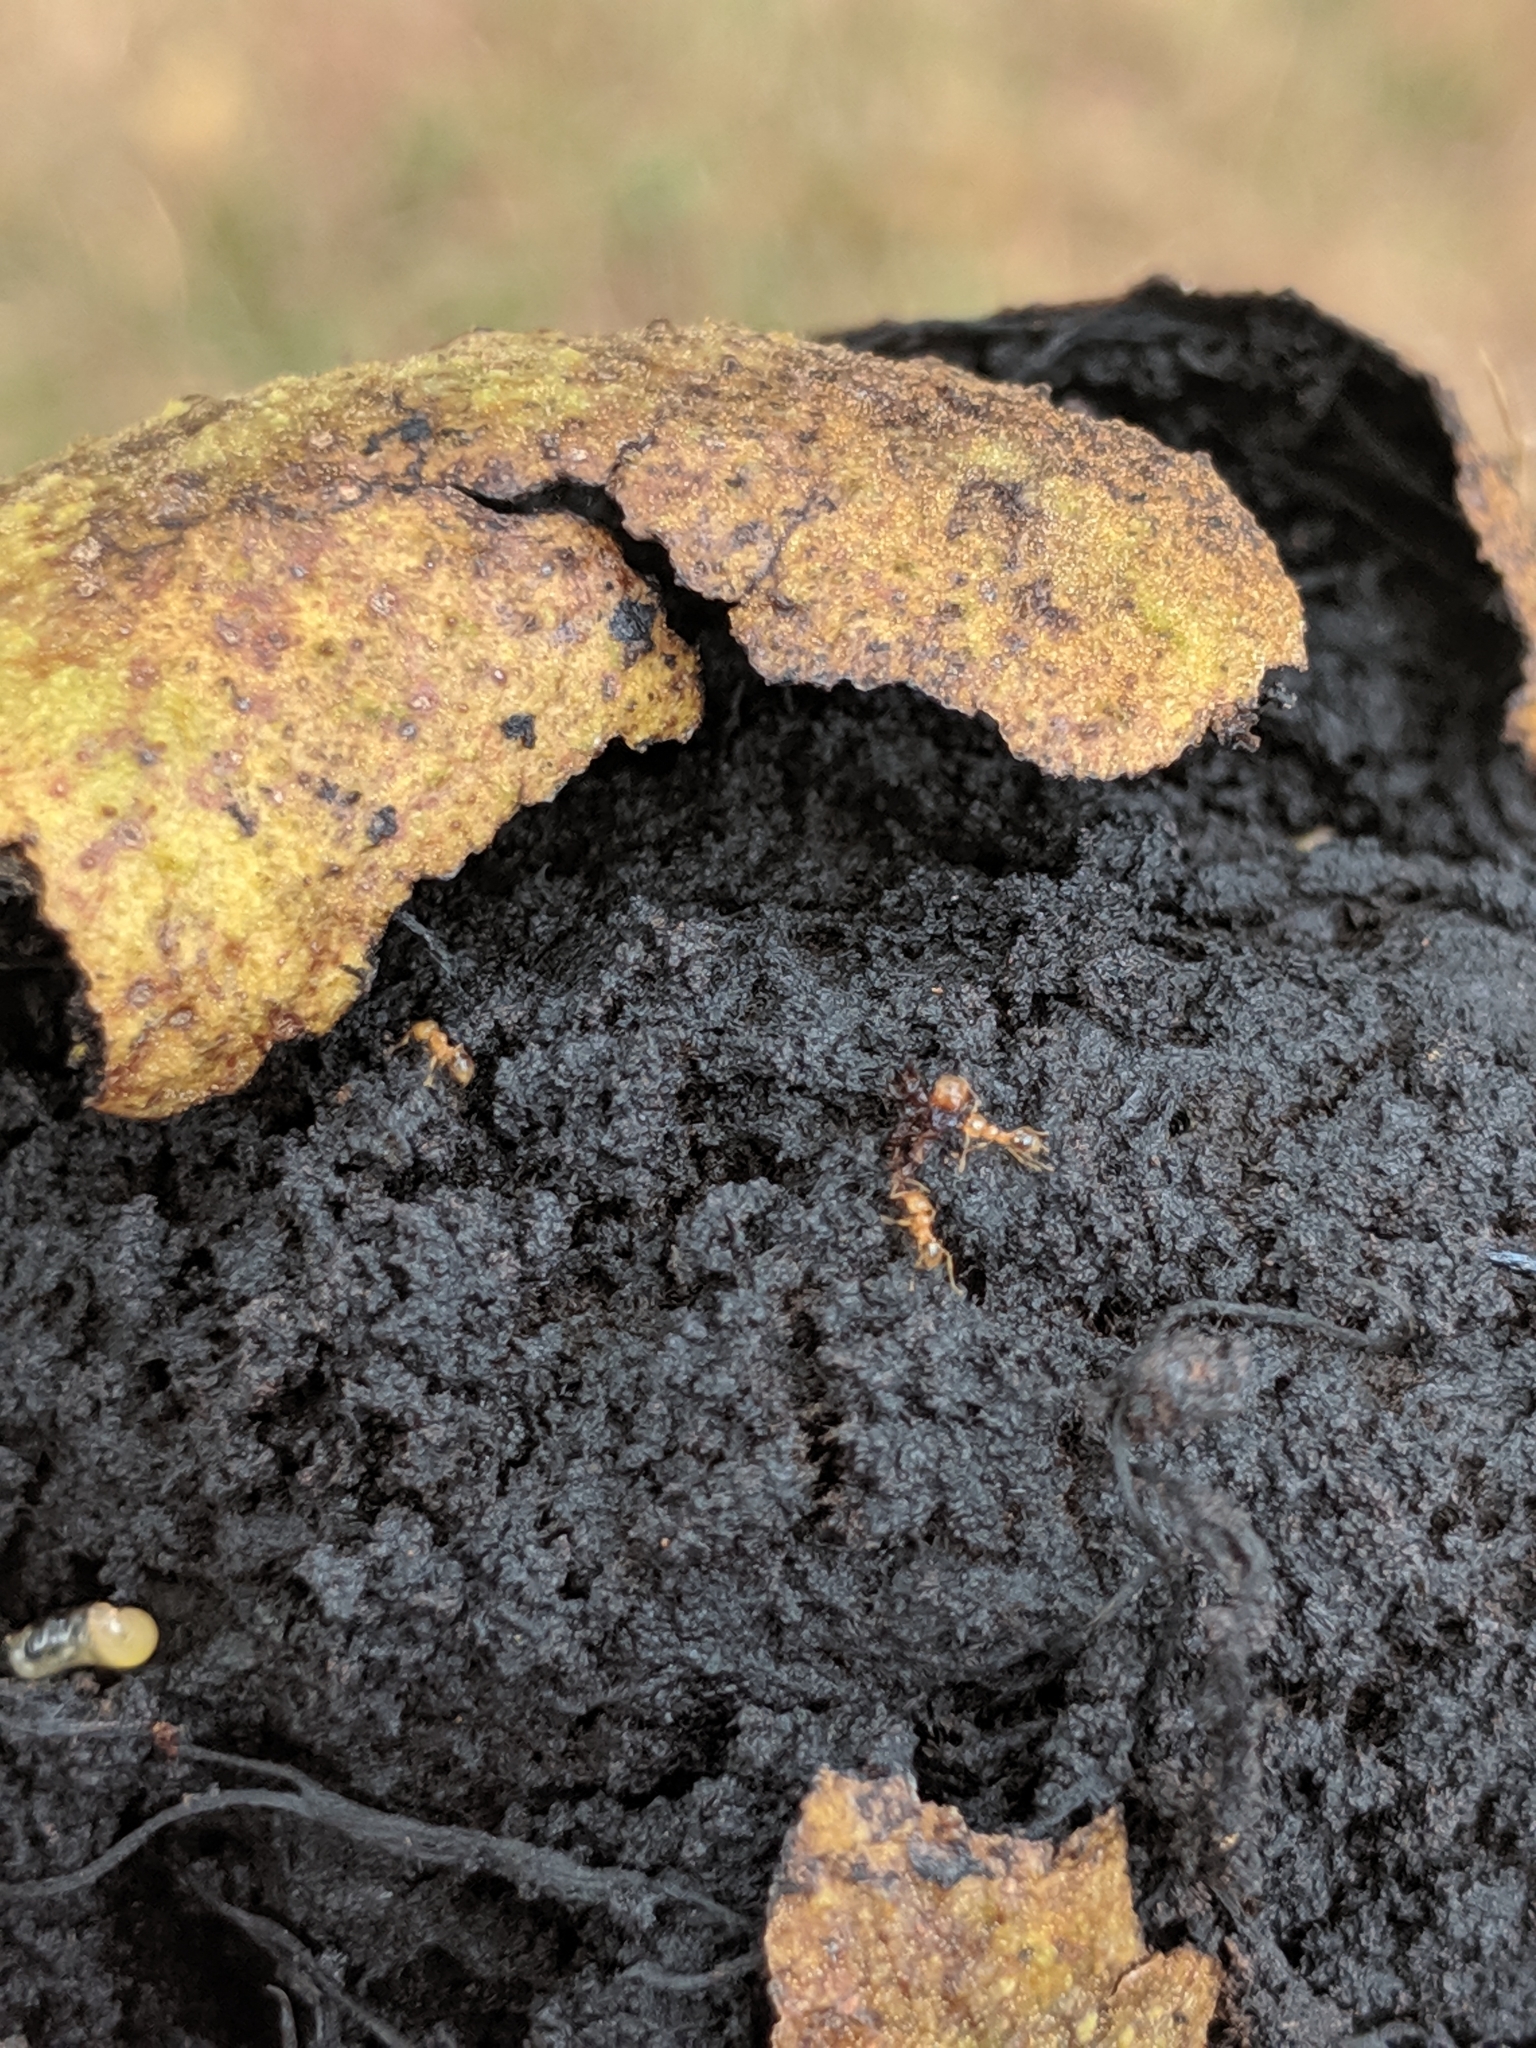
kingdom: Animalia
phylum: Arthropoda
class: Insecta
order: Hymenoptera
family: Formicidae
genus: Pheidole
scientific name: Pheidole tysoni
